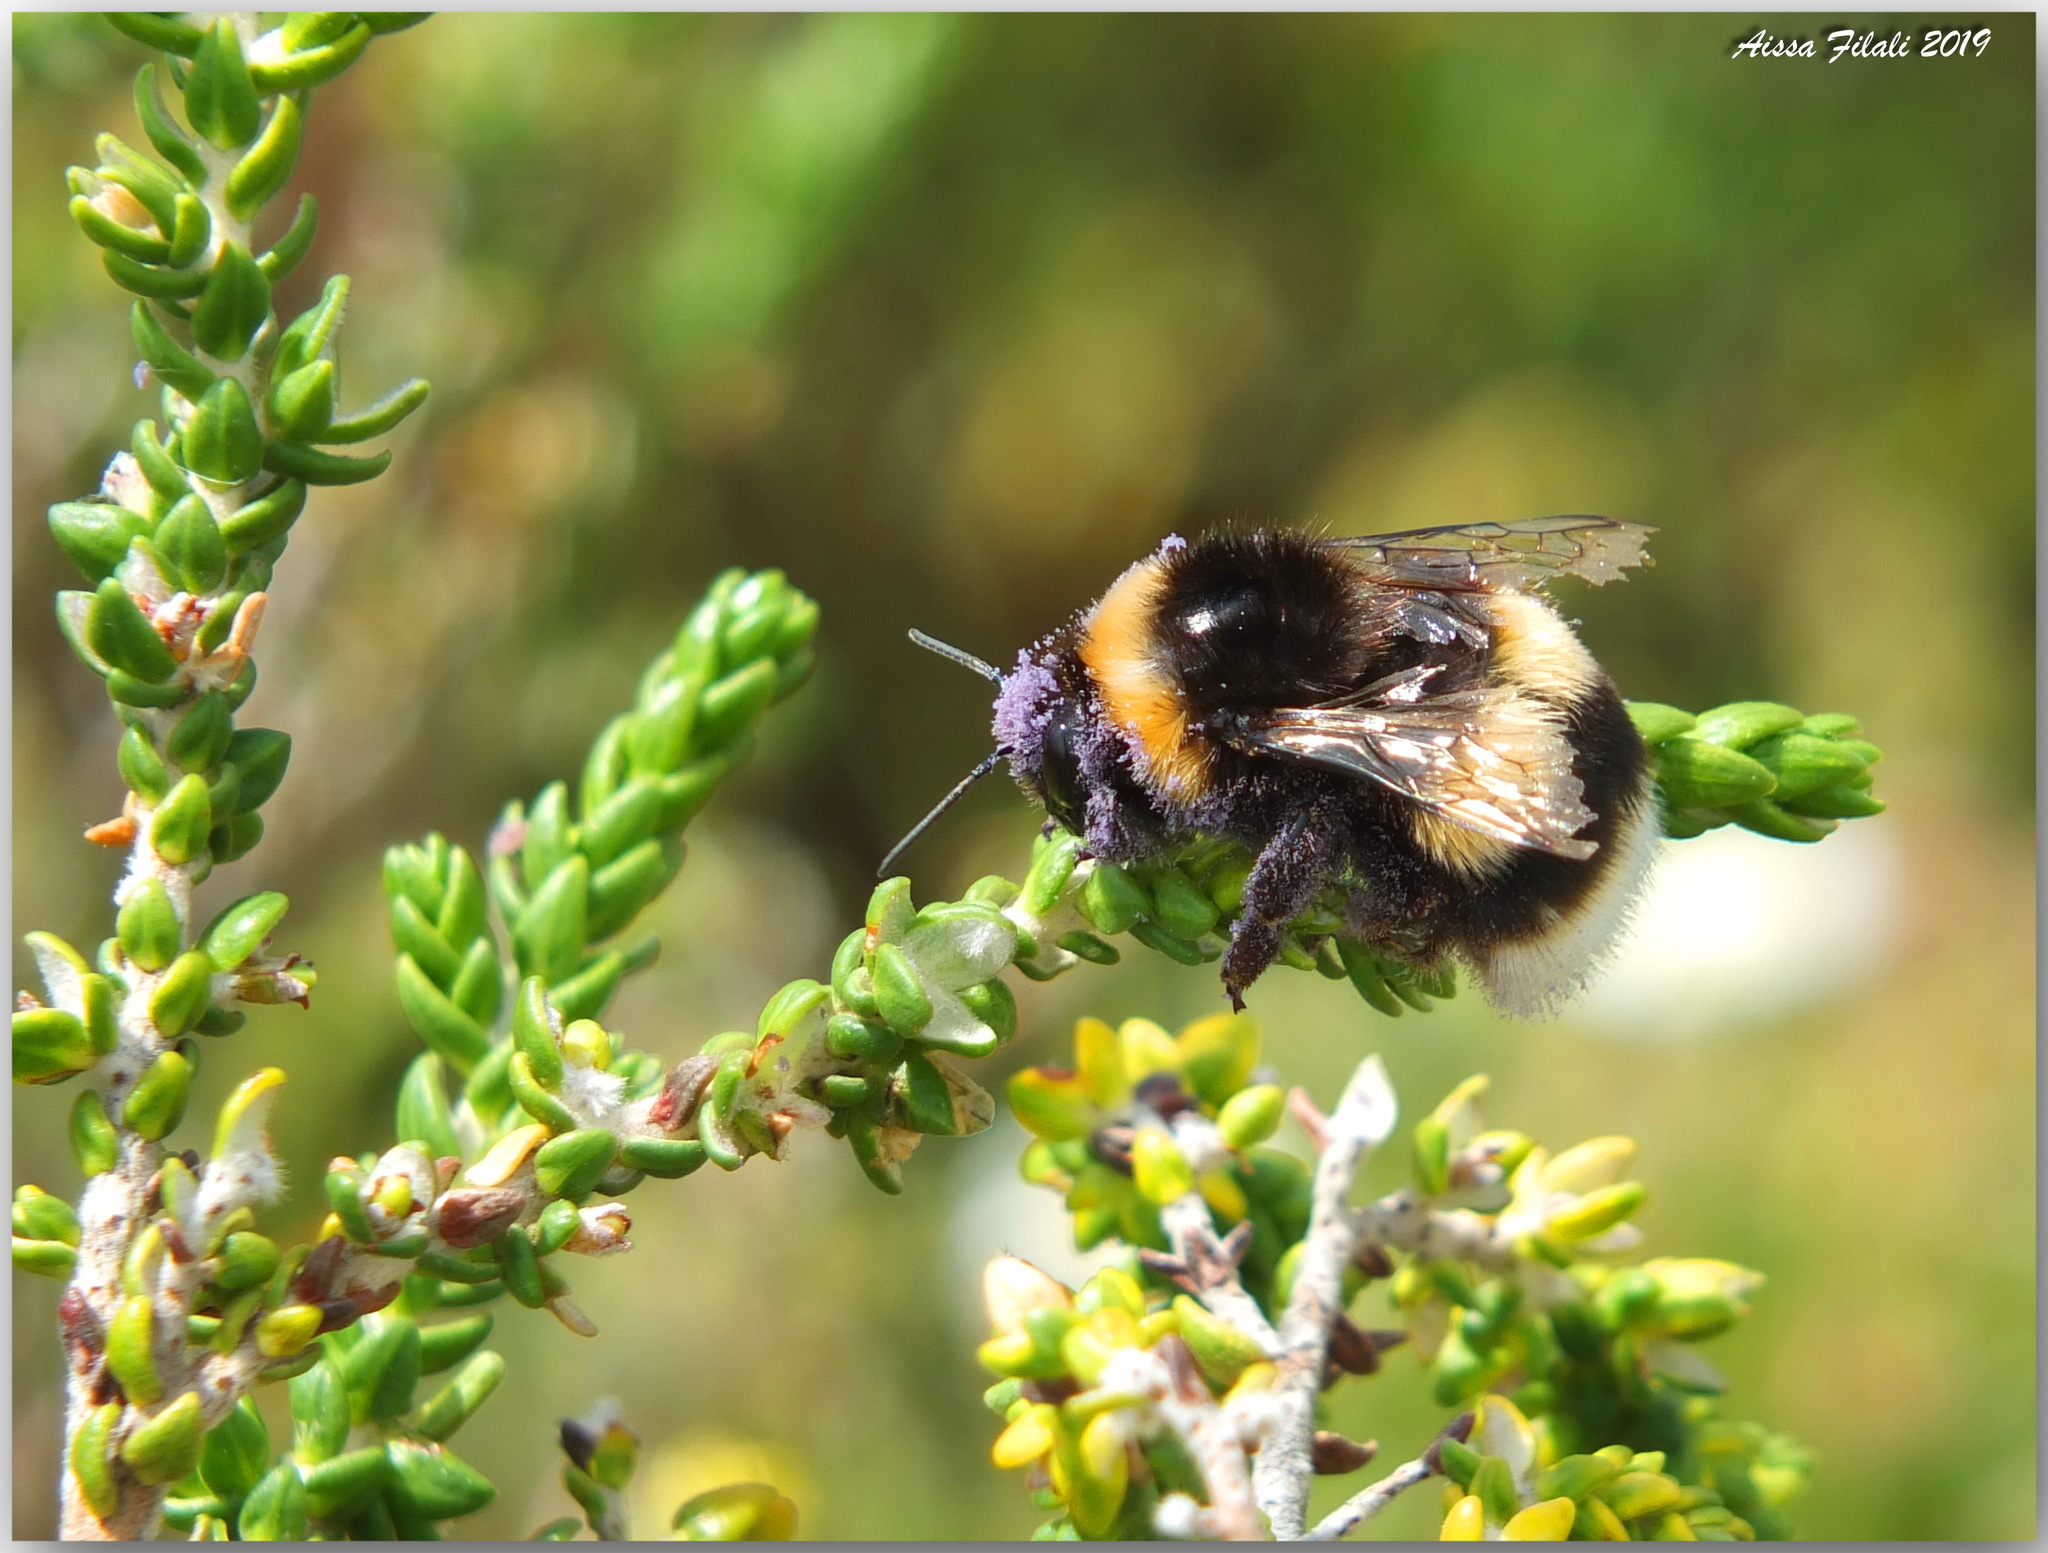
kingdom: Animalia
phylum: Arthropoda
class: Insecta
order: Hymenoptera
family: Apidae
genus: Bombus
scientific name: Bombus terrestris
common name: Buff-tailed bumblebee
